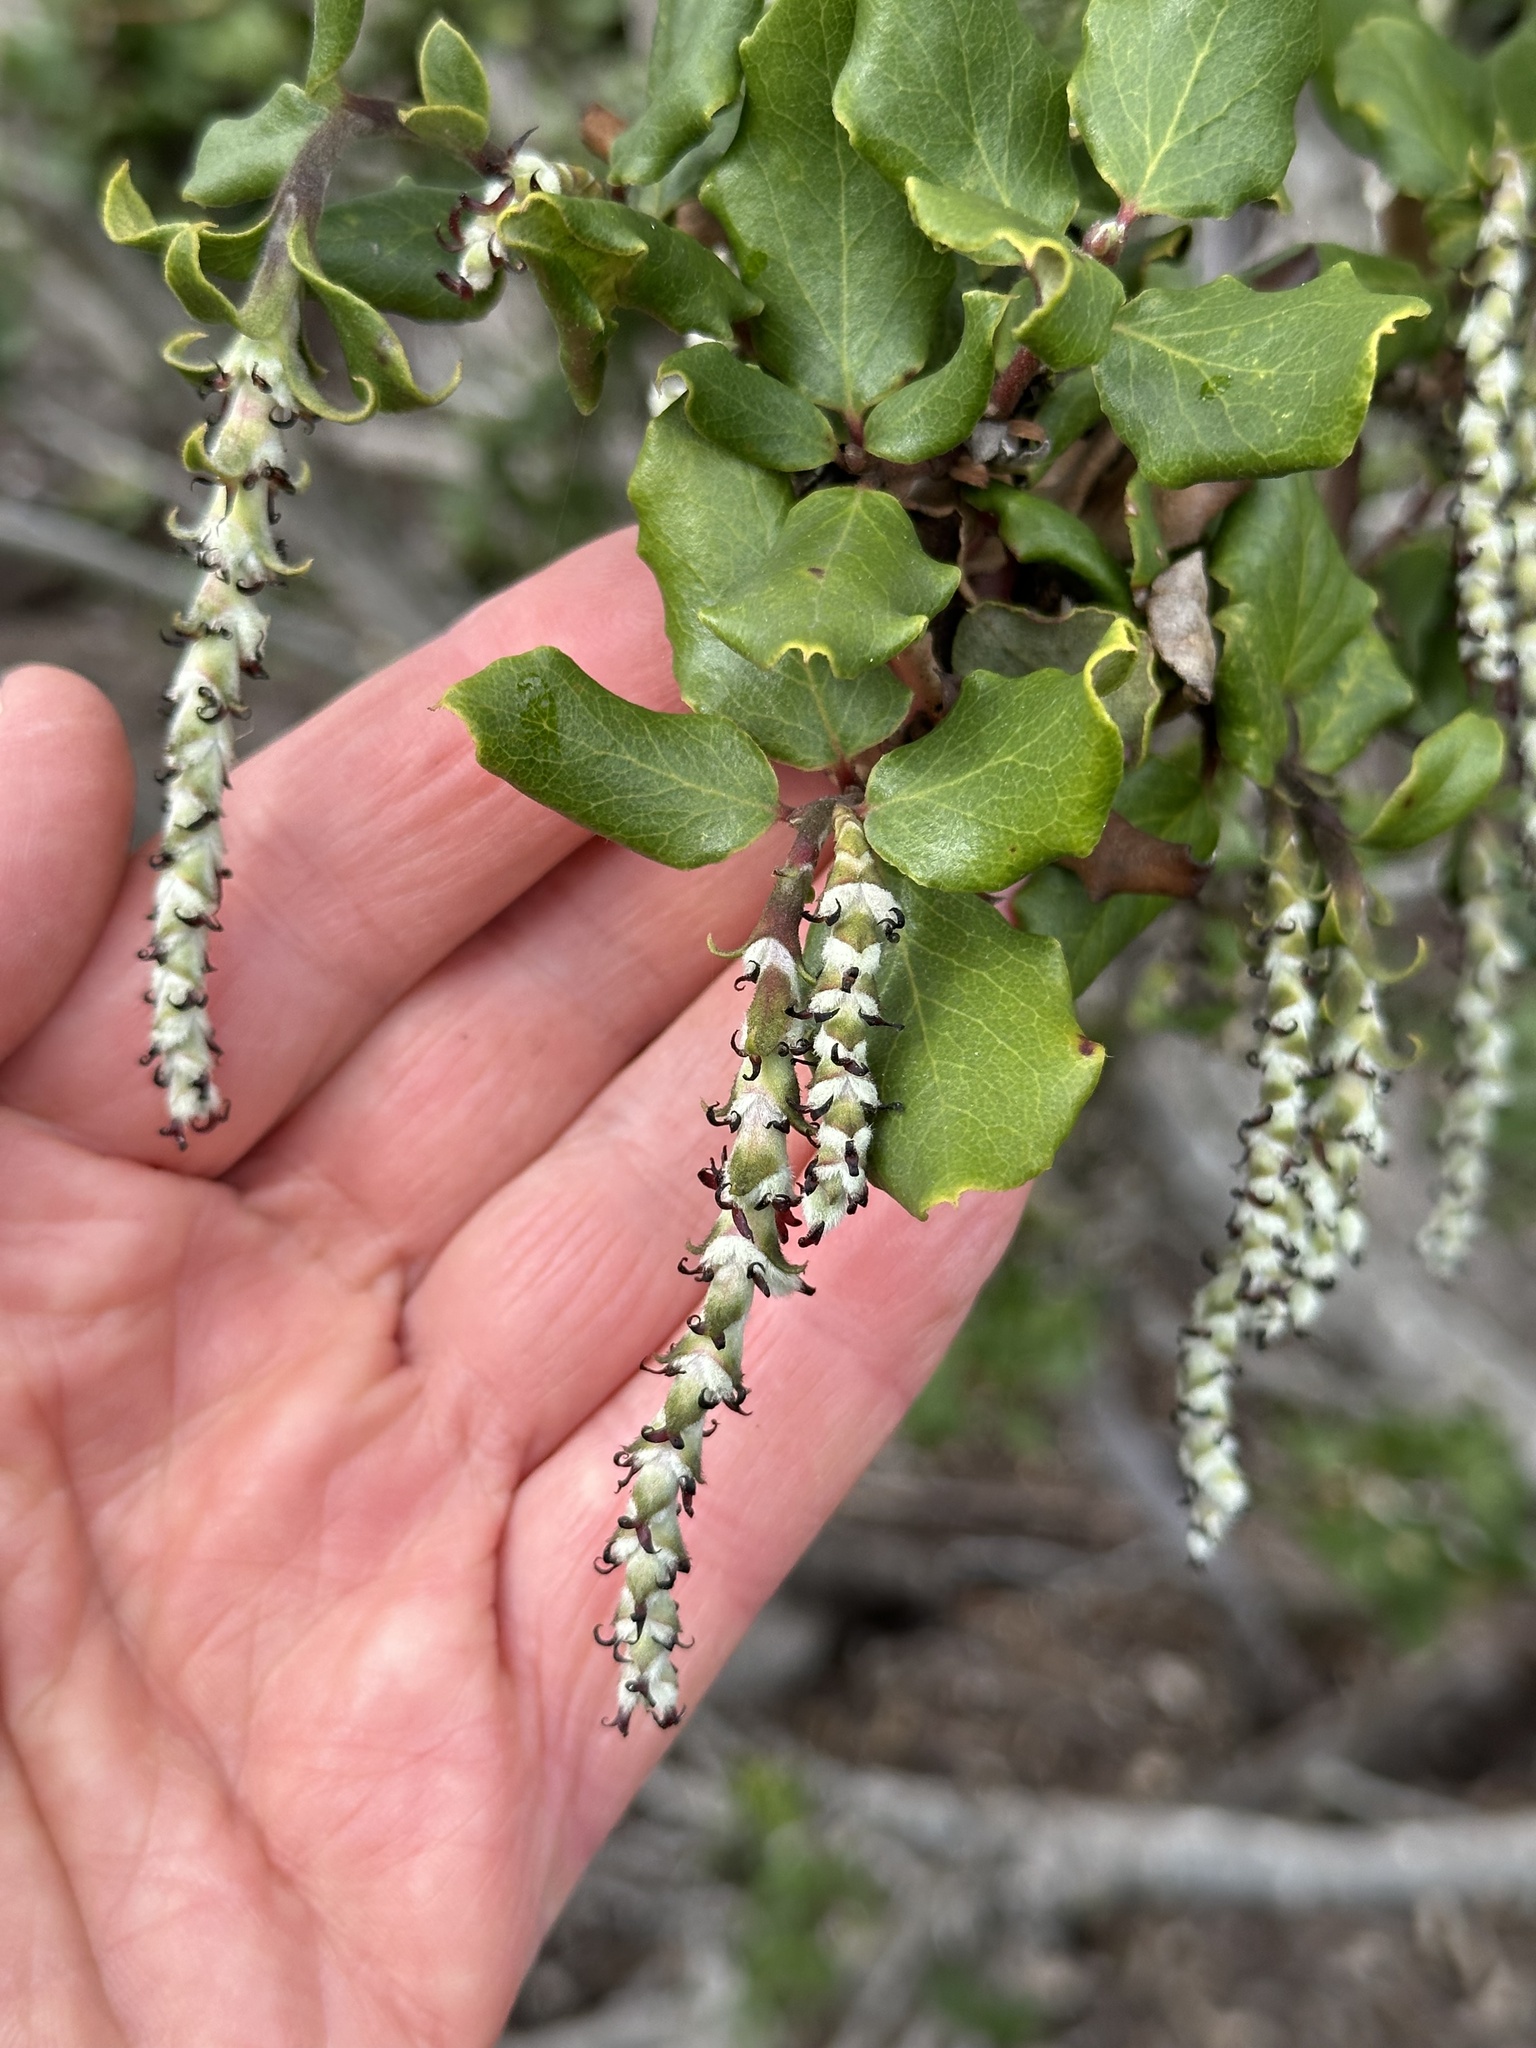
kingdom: Plantae
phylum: Tracheophyta
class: Magnoliopsida
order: Garryales
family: Garryaceae
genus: Garrya
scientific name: Garrya elliptica
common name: Silk-tassel
